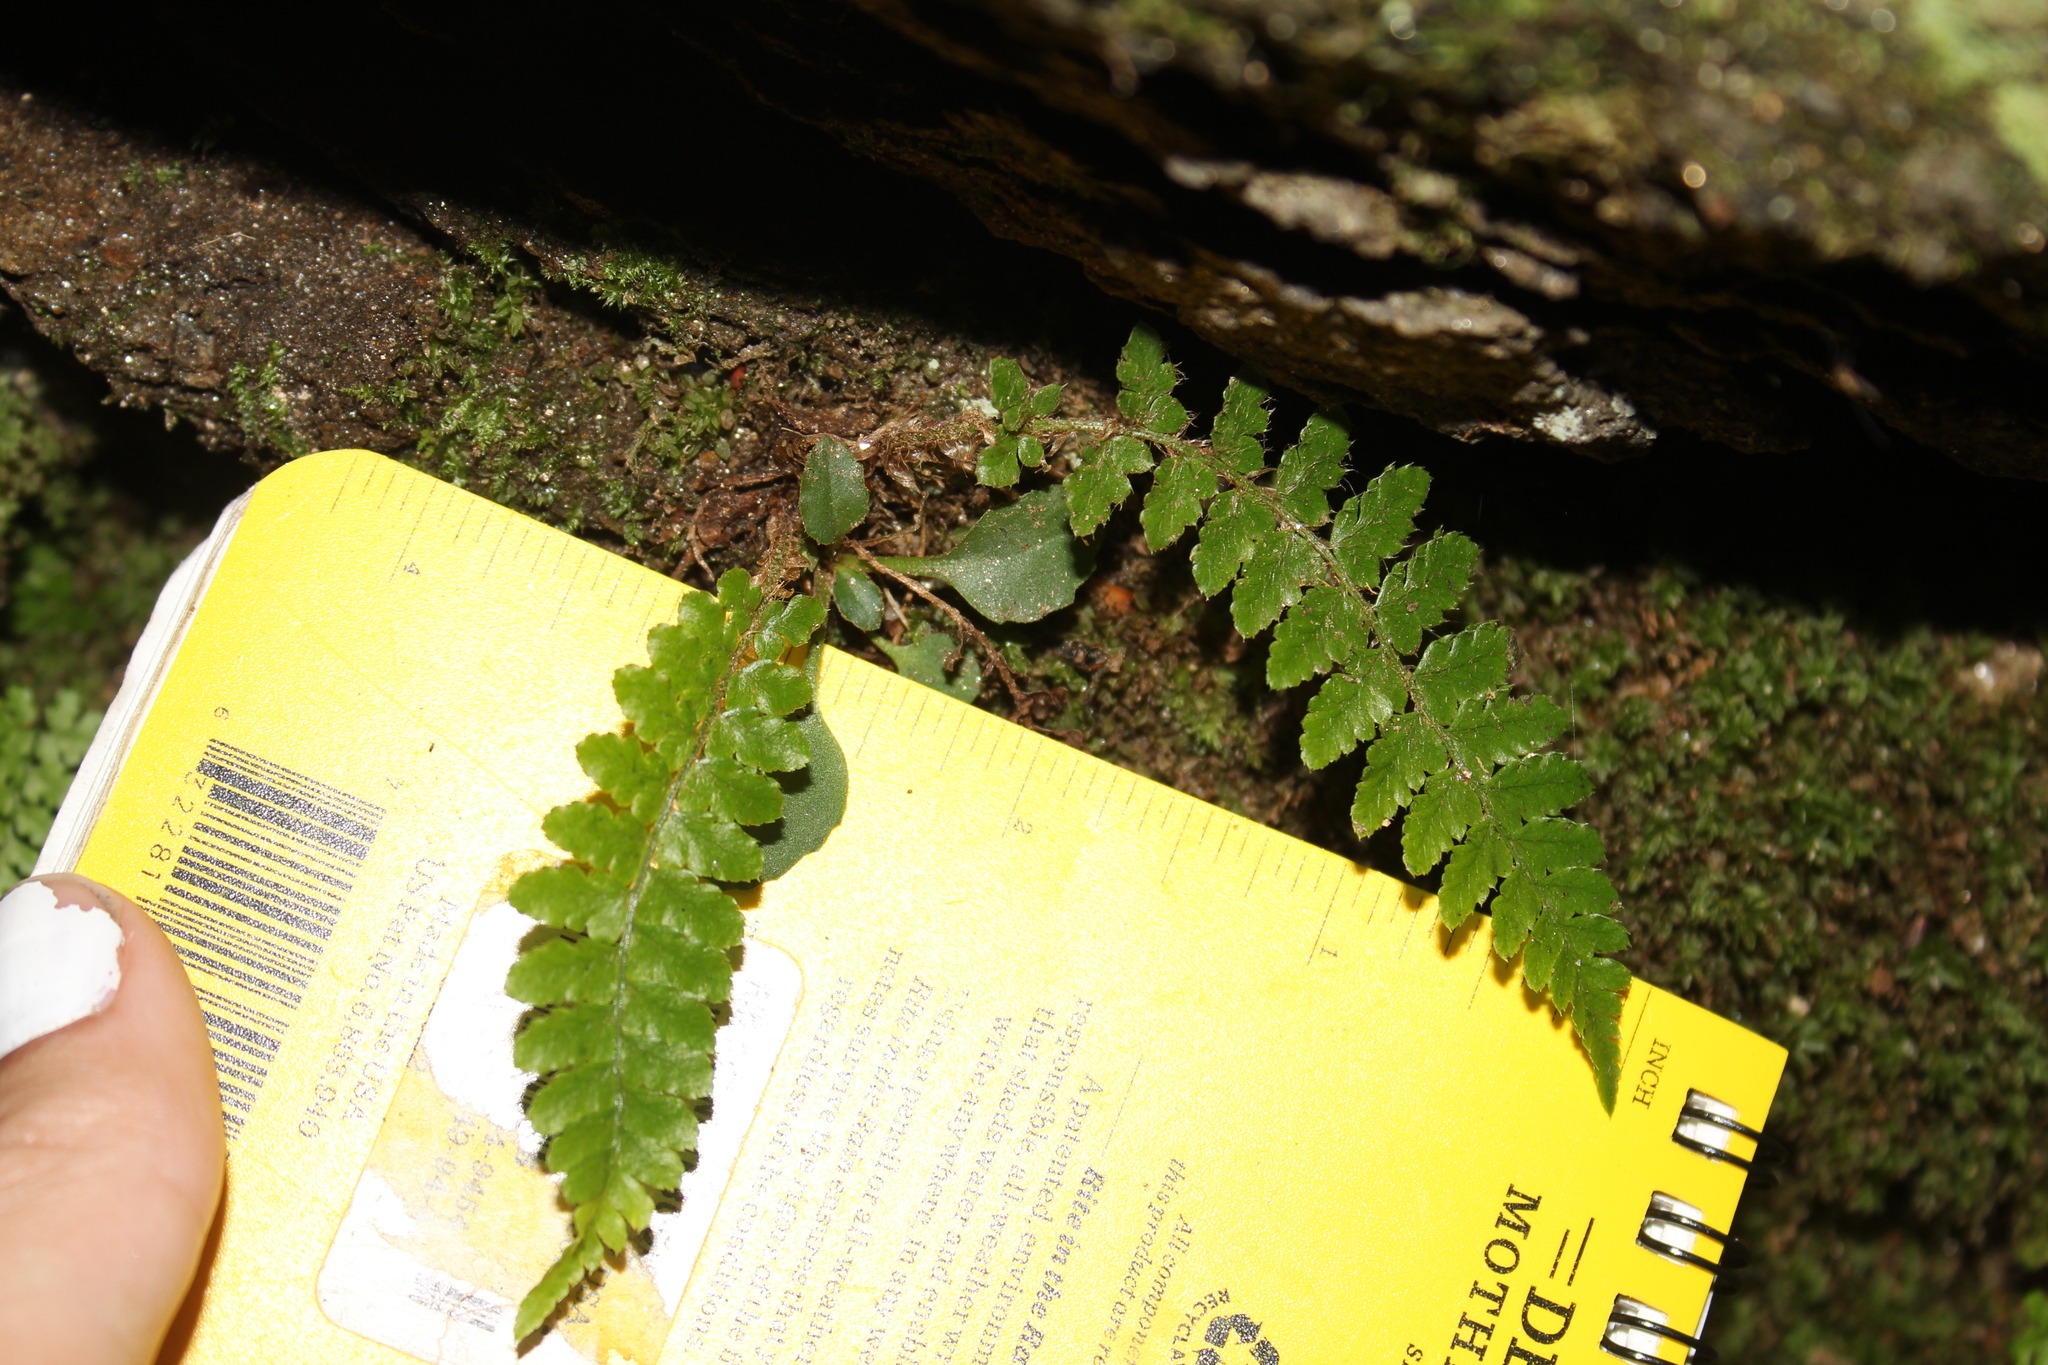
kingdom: Plantae
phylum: Tracheophyta
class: Polypodiopsida
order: Polypodiales
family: Dryopteridaceae
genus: Polystichum
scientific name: Polystichum braunii
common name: Braun's holly fern
